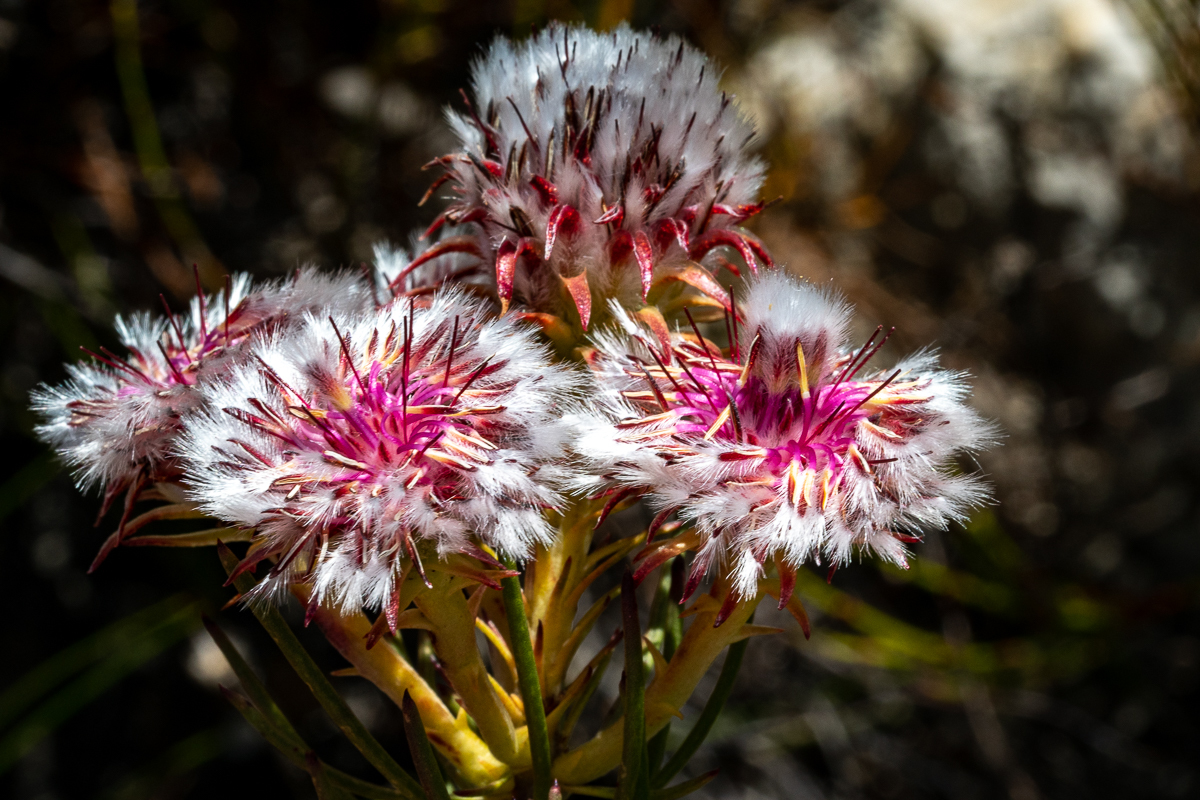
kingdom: Plantae
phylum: Tracheophyta
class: Magnoliopsida
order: Proteales
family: Proteaceae
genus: Serruria
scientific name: Serruria phylicoides
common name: Bearded spiderhead
